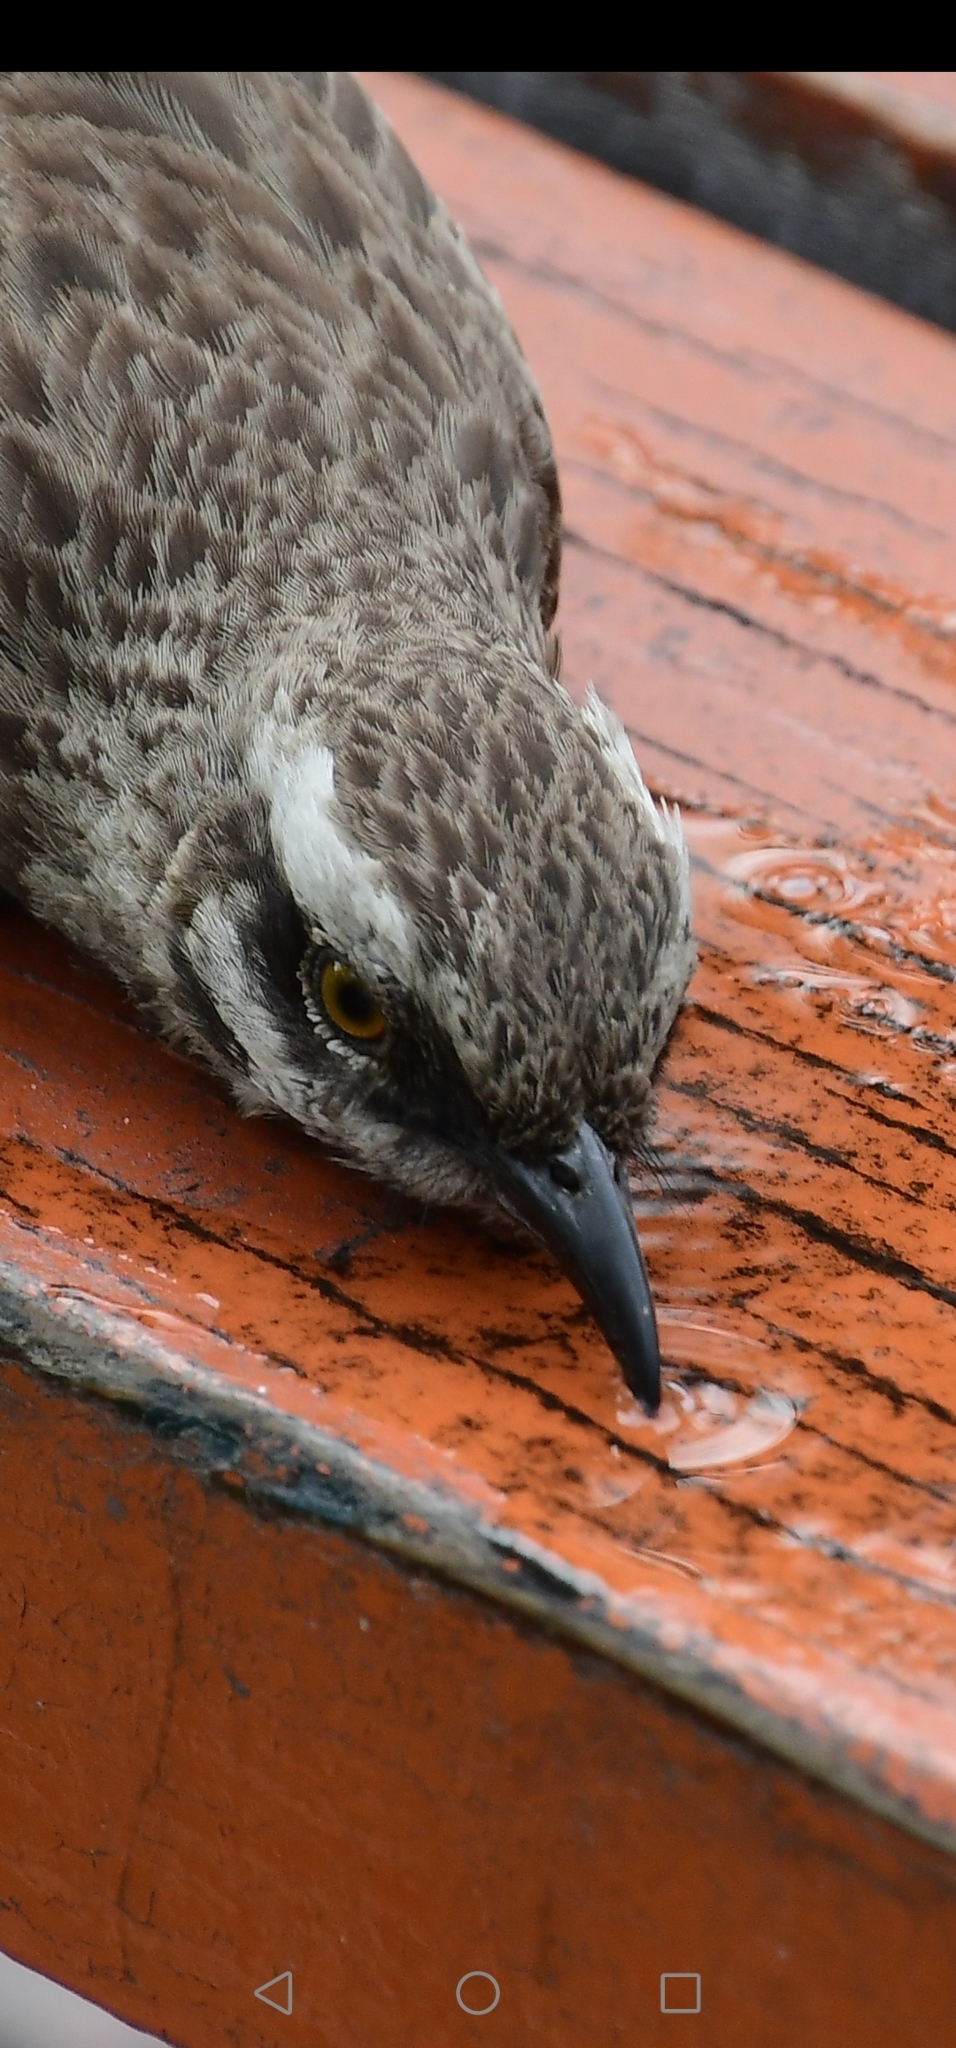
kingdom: Animalia
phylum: Chordata
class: Aves
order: Passeriformes
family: Mimidae
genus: Mimus
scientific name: Mimus longicaudatus
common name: Long-tailed mockingbird
